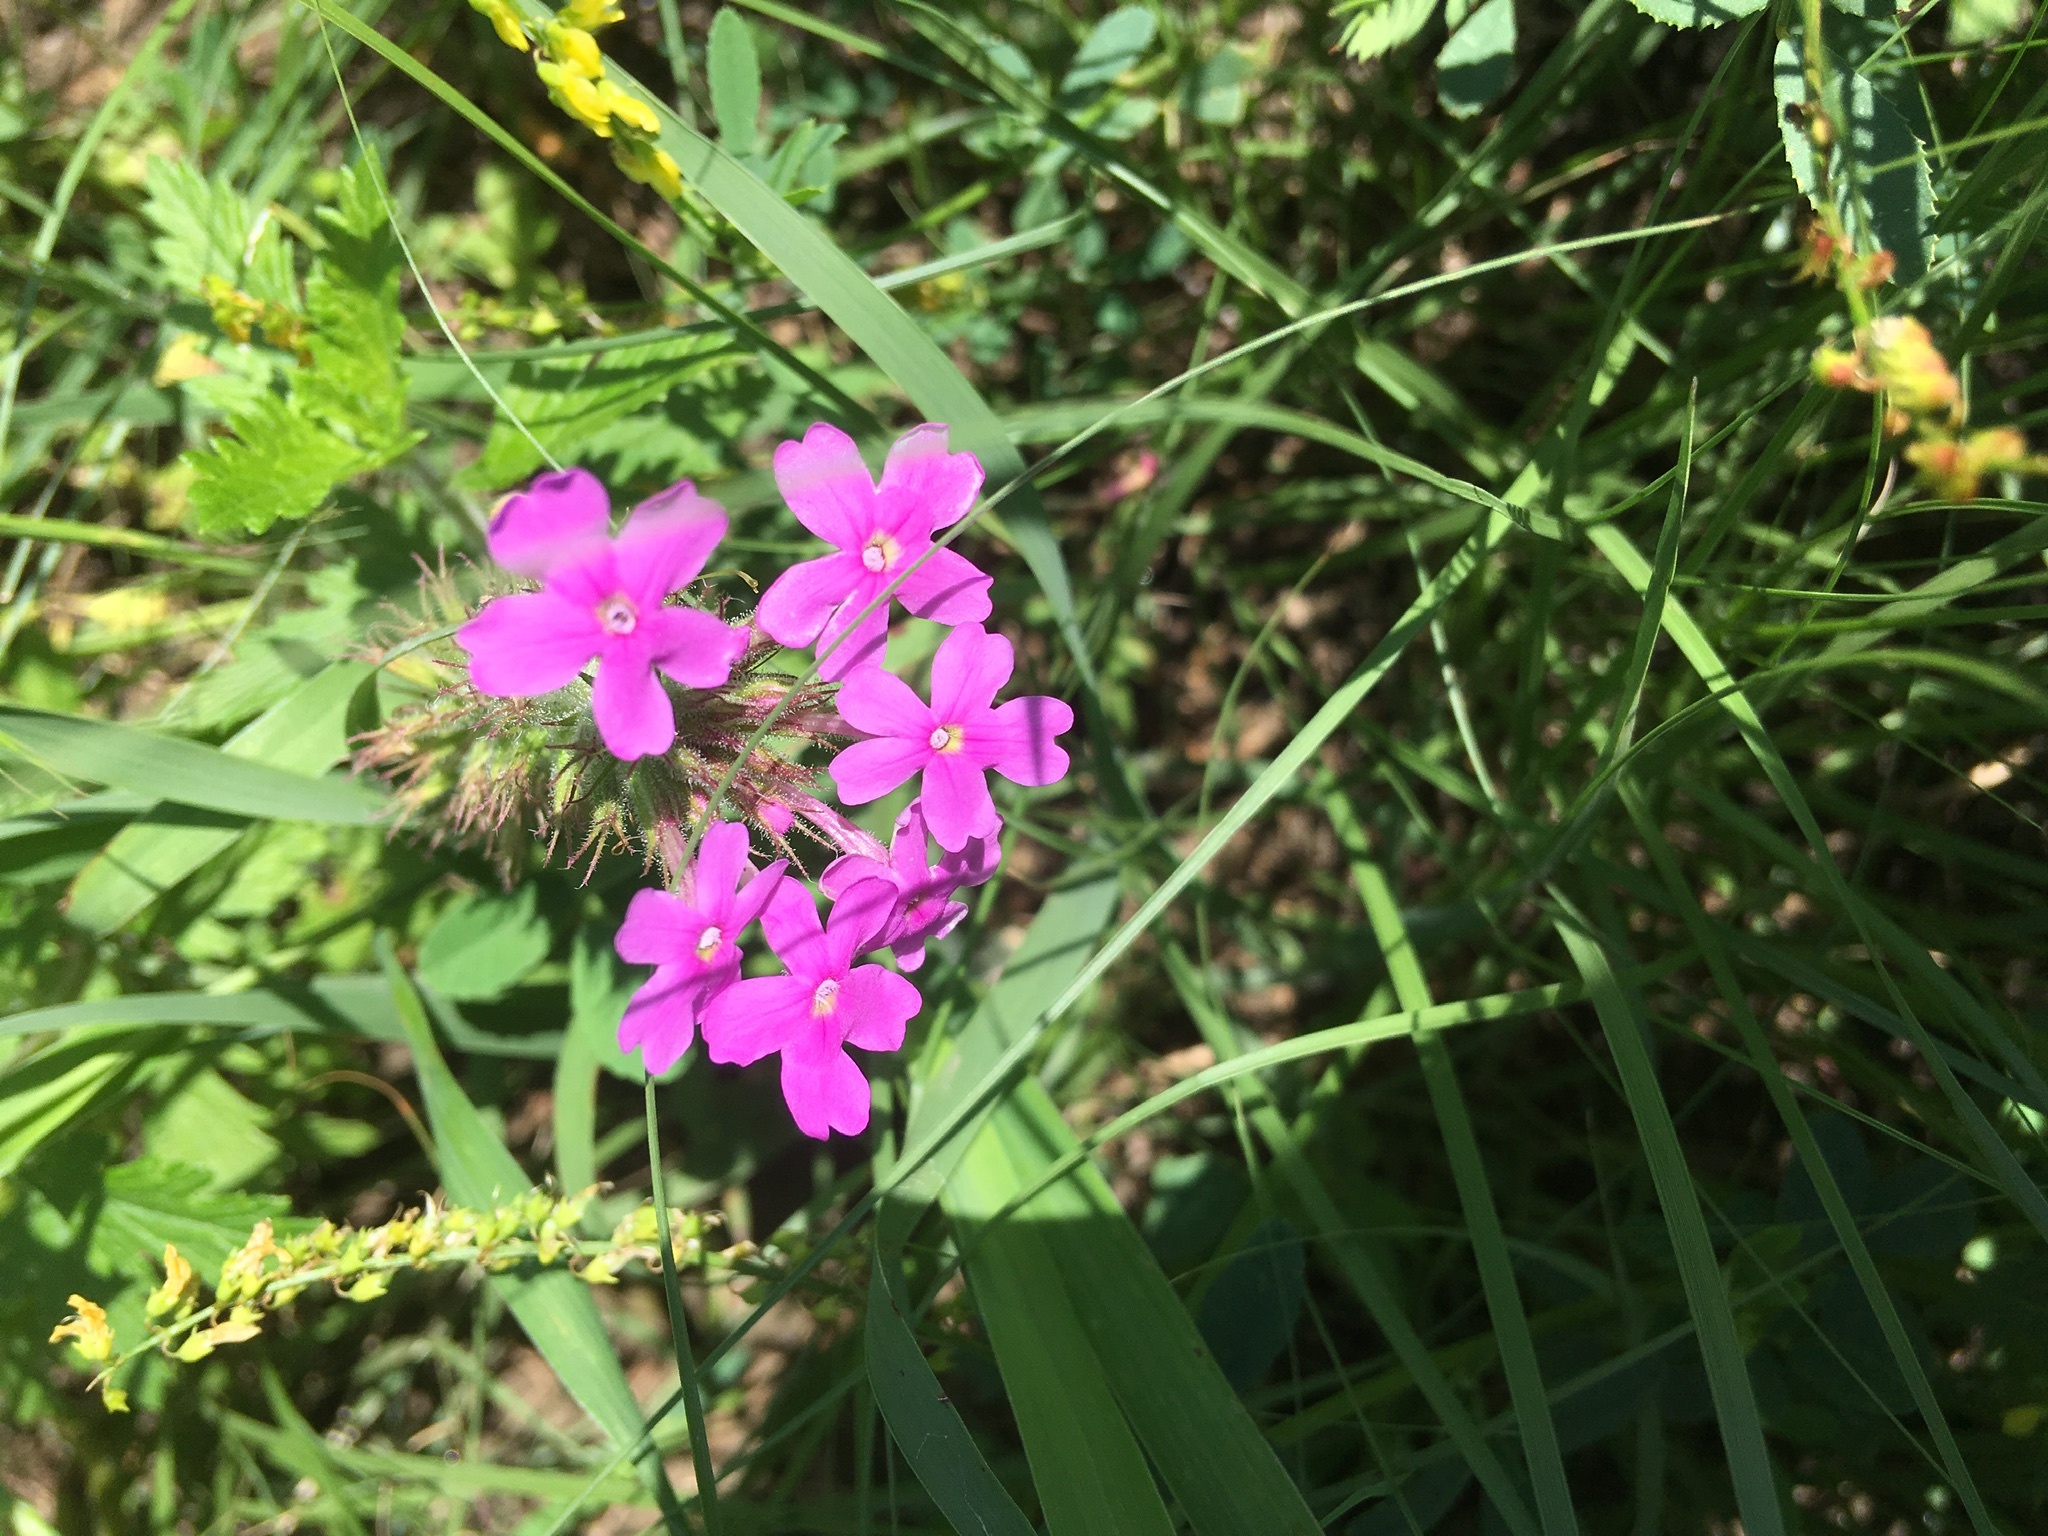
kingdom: Plantae
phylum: Tracheophyta
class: Magnoliopsida
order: Lamiales
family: Verbenaceae
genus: Verbena
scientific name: Verbena canadensis
